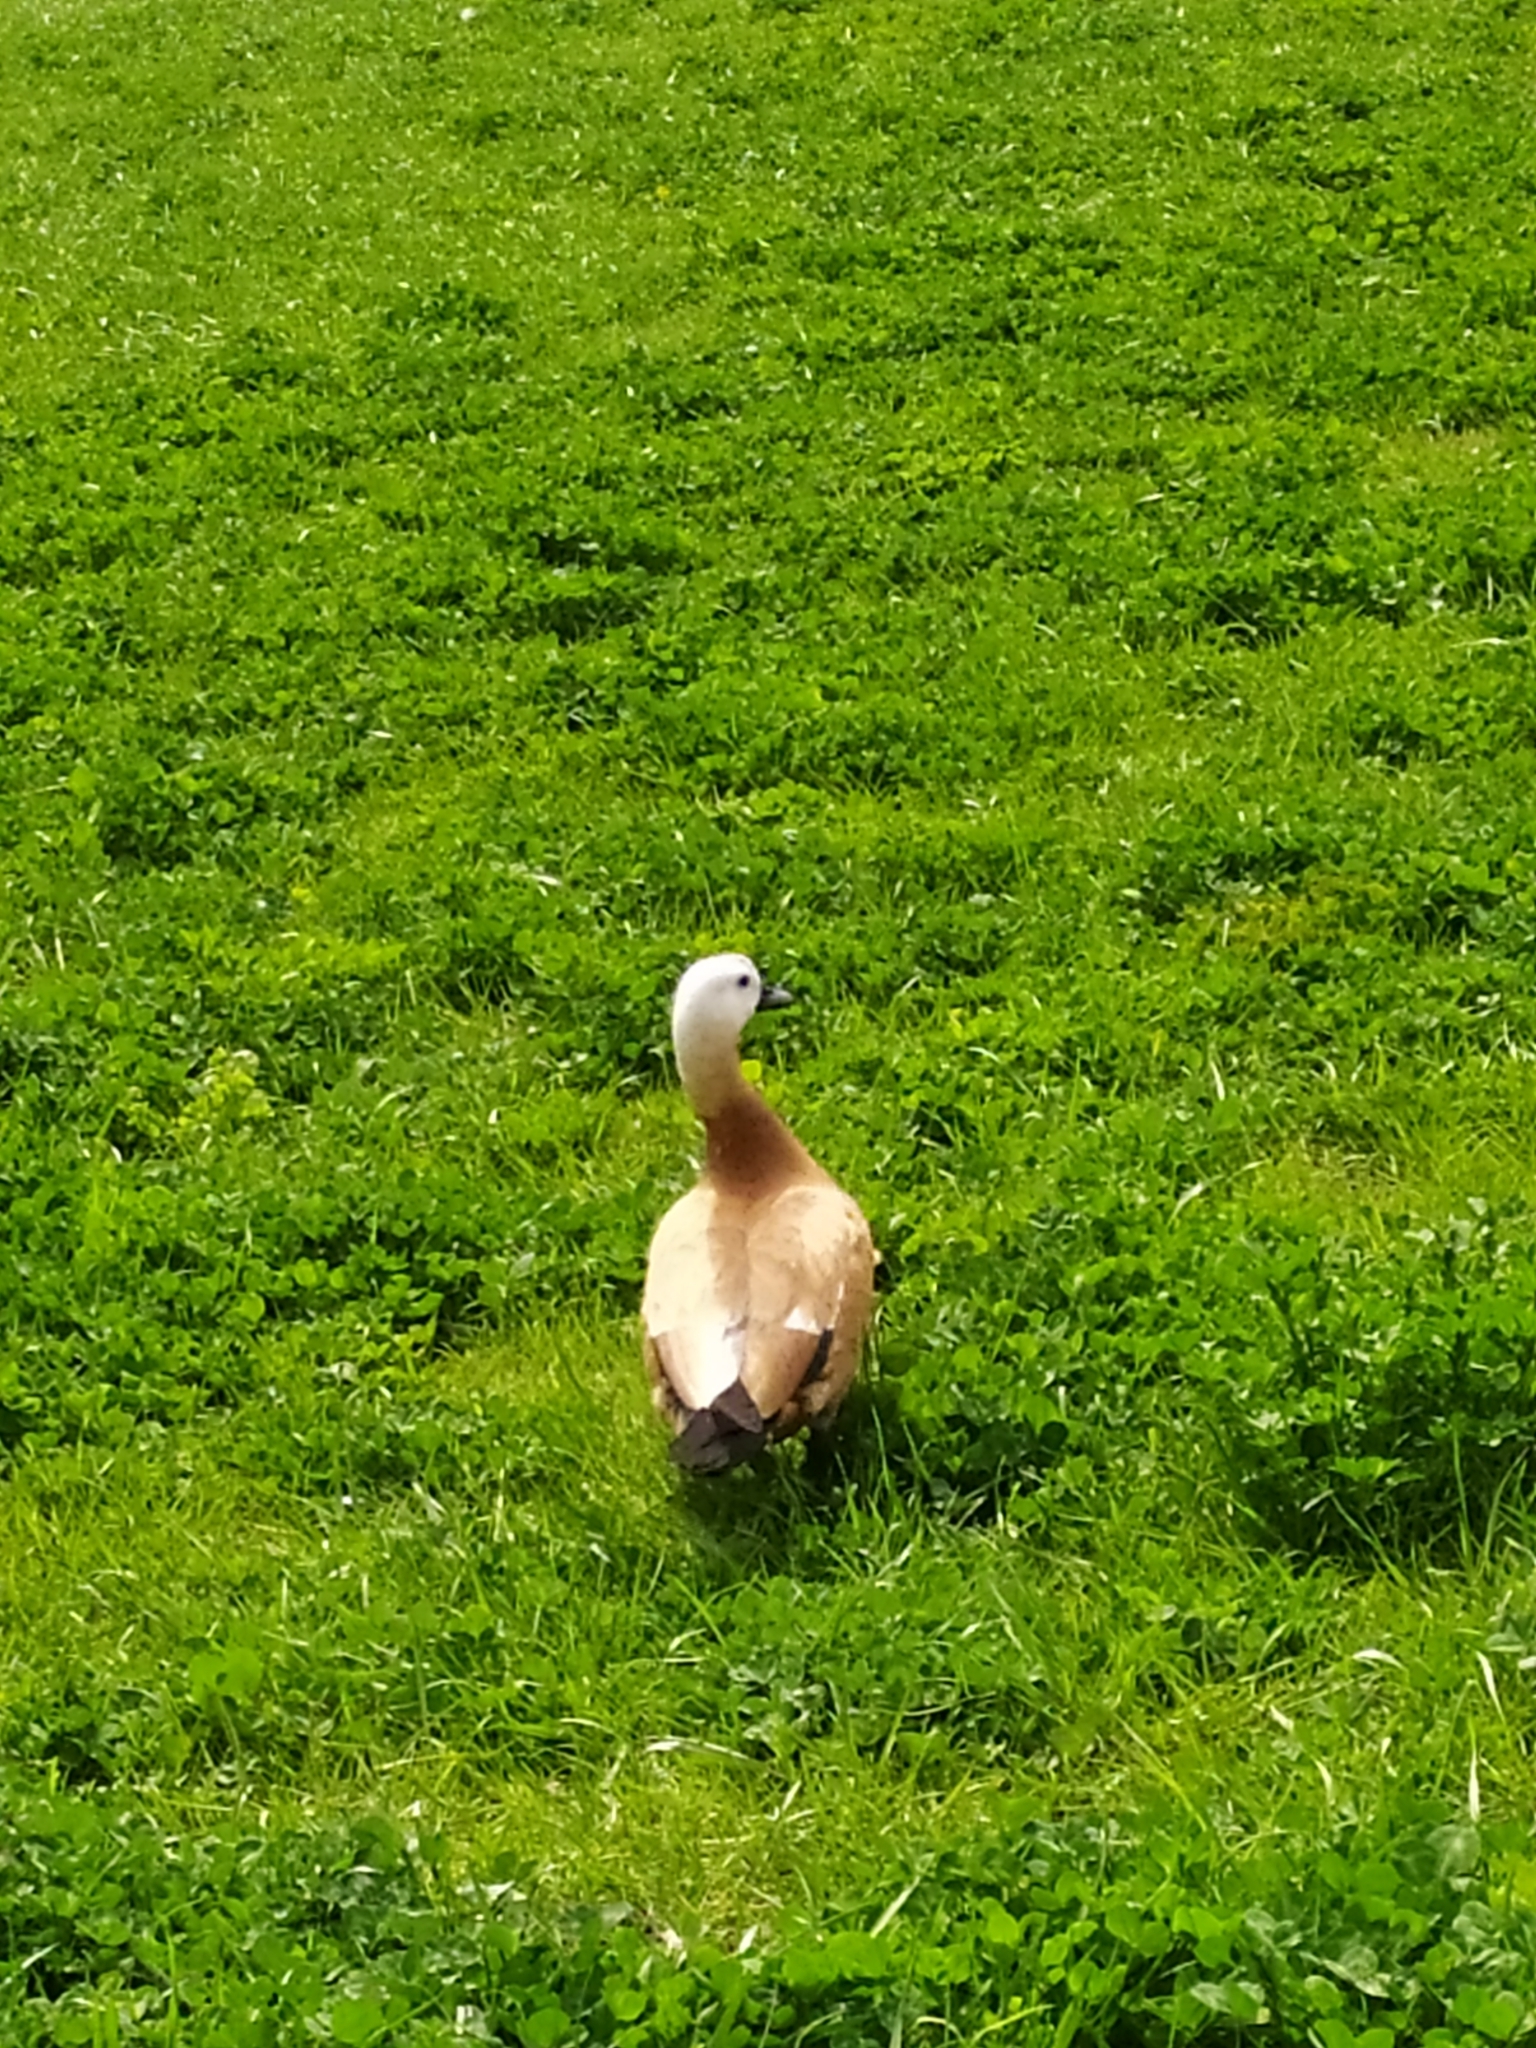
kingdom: Animalia
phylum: Chordata
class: Aves
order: Anseriformes
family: Anatidae
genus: Tadorna
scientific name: Tadorna ferruginea
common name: Ruddy shelduck
